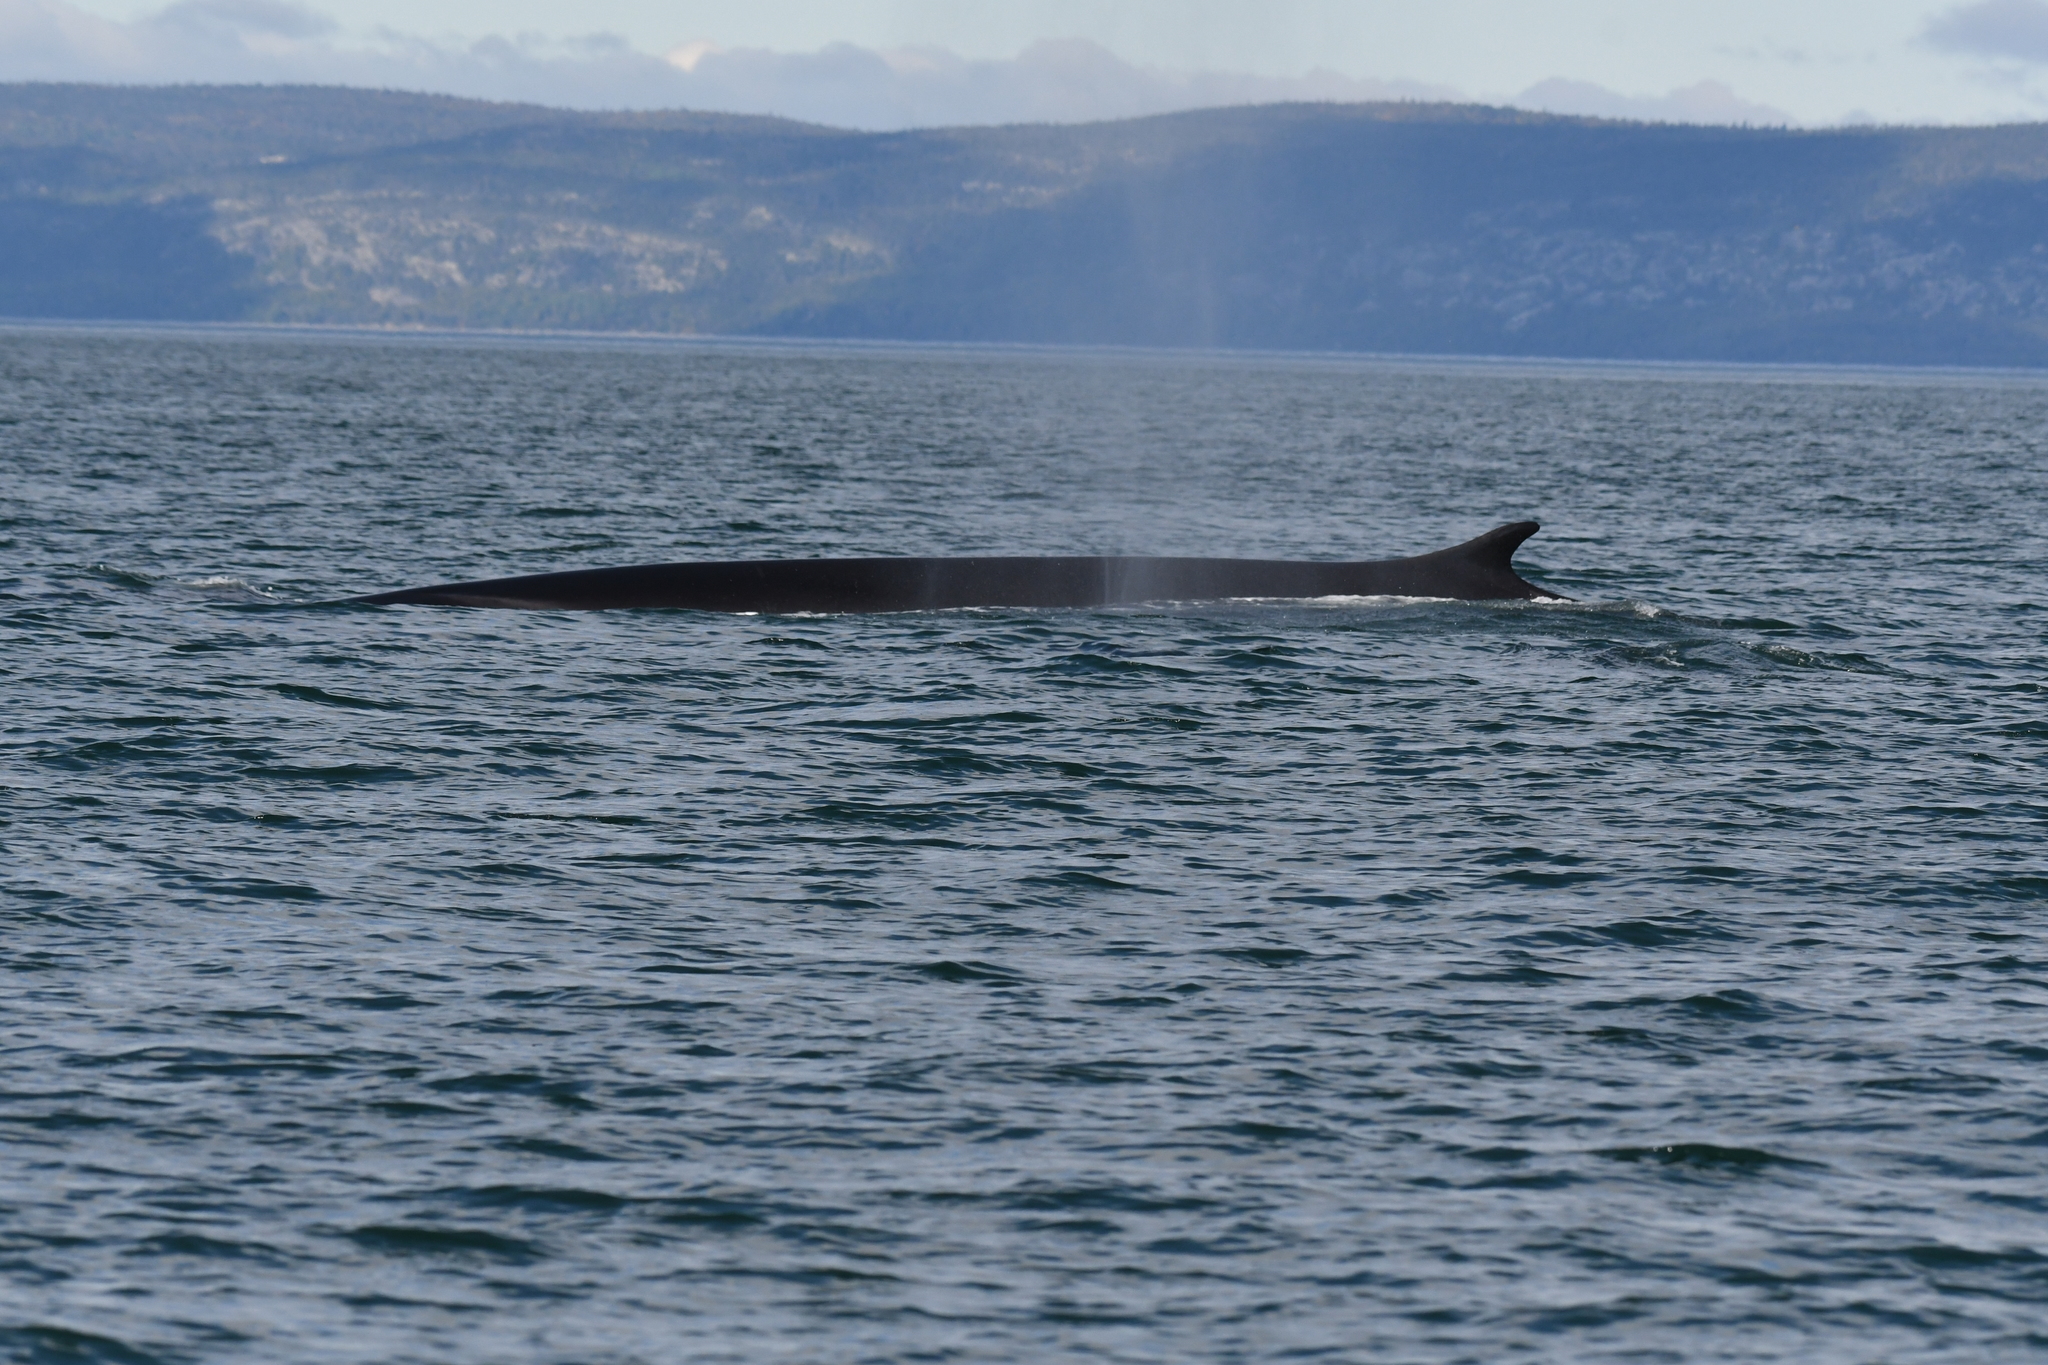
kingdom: Animalia
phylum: Chordata
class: Mammalia
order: Cetacea
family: Balaenopteridae
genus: Balaenoptera
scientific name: Balaenoptera physalus
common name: Fin whale
